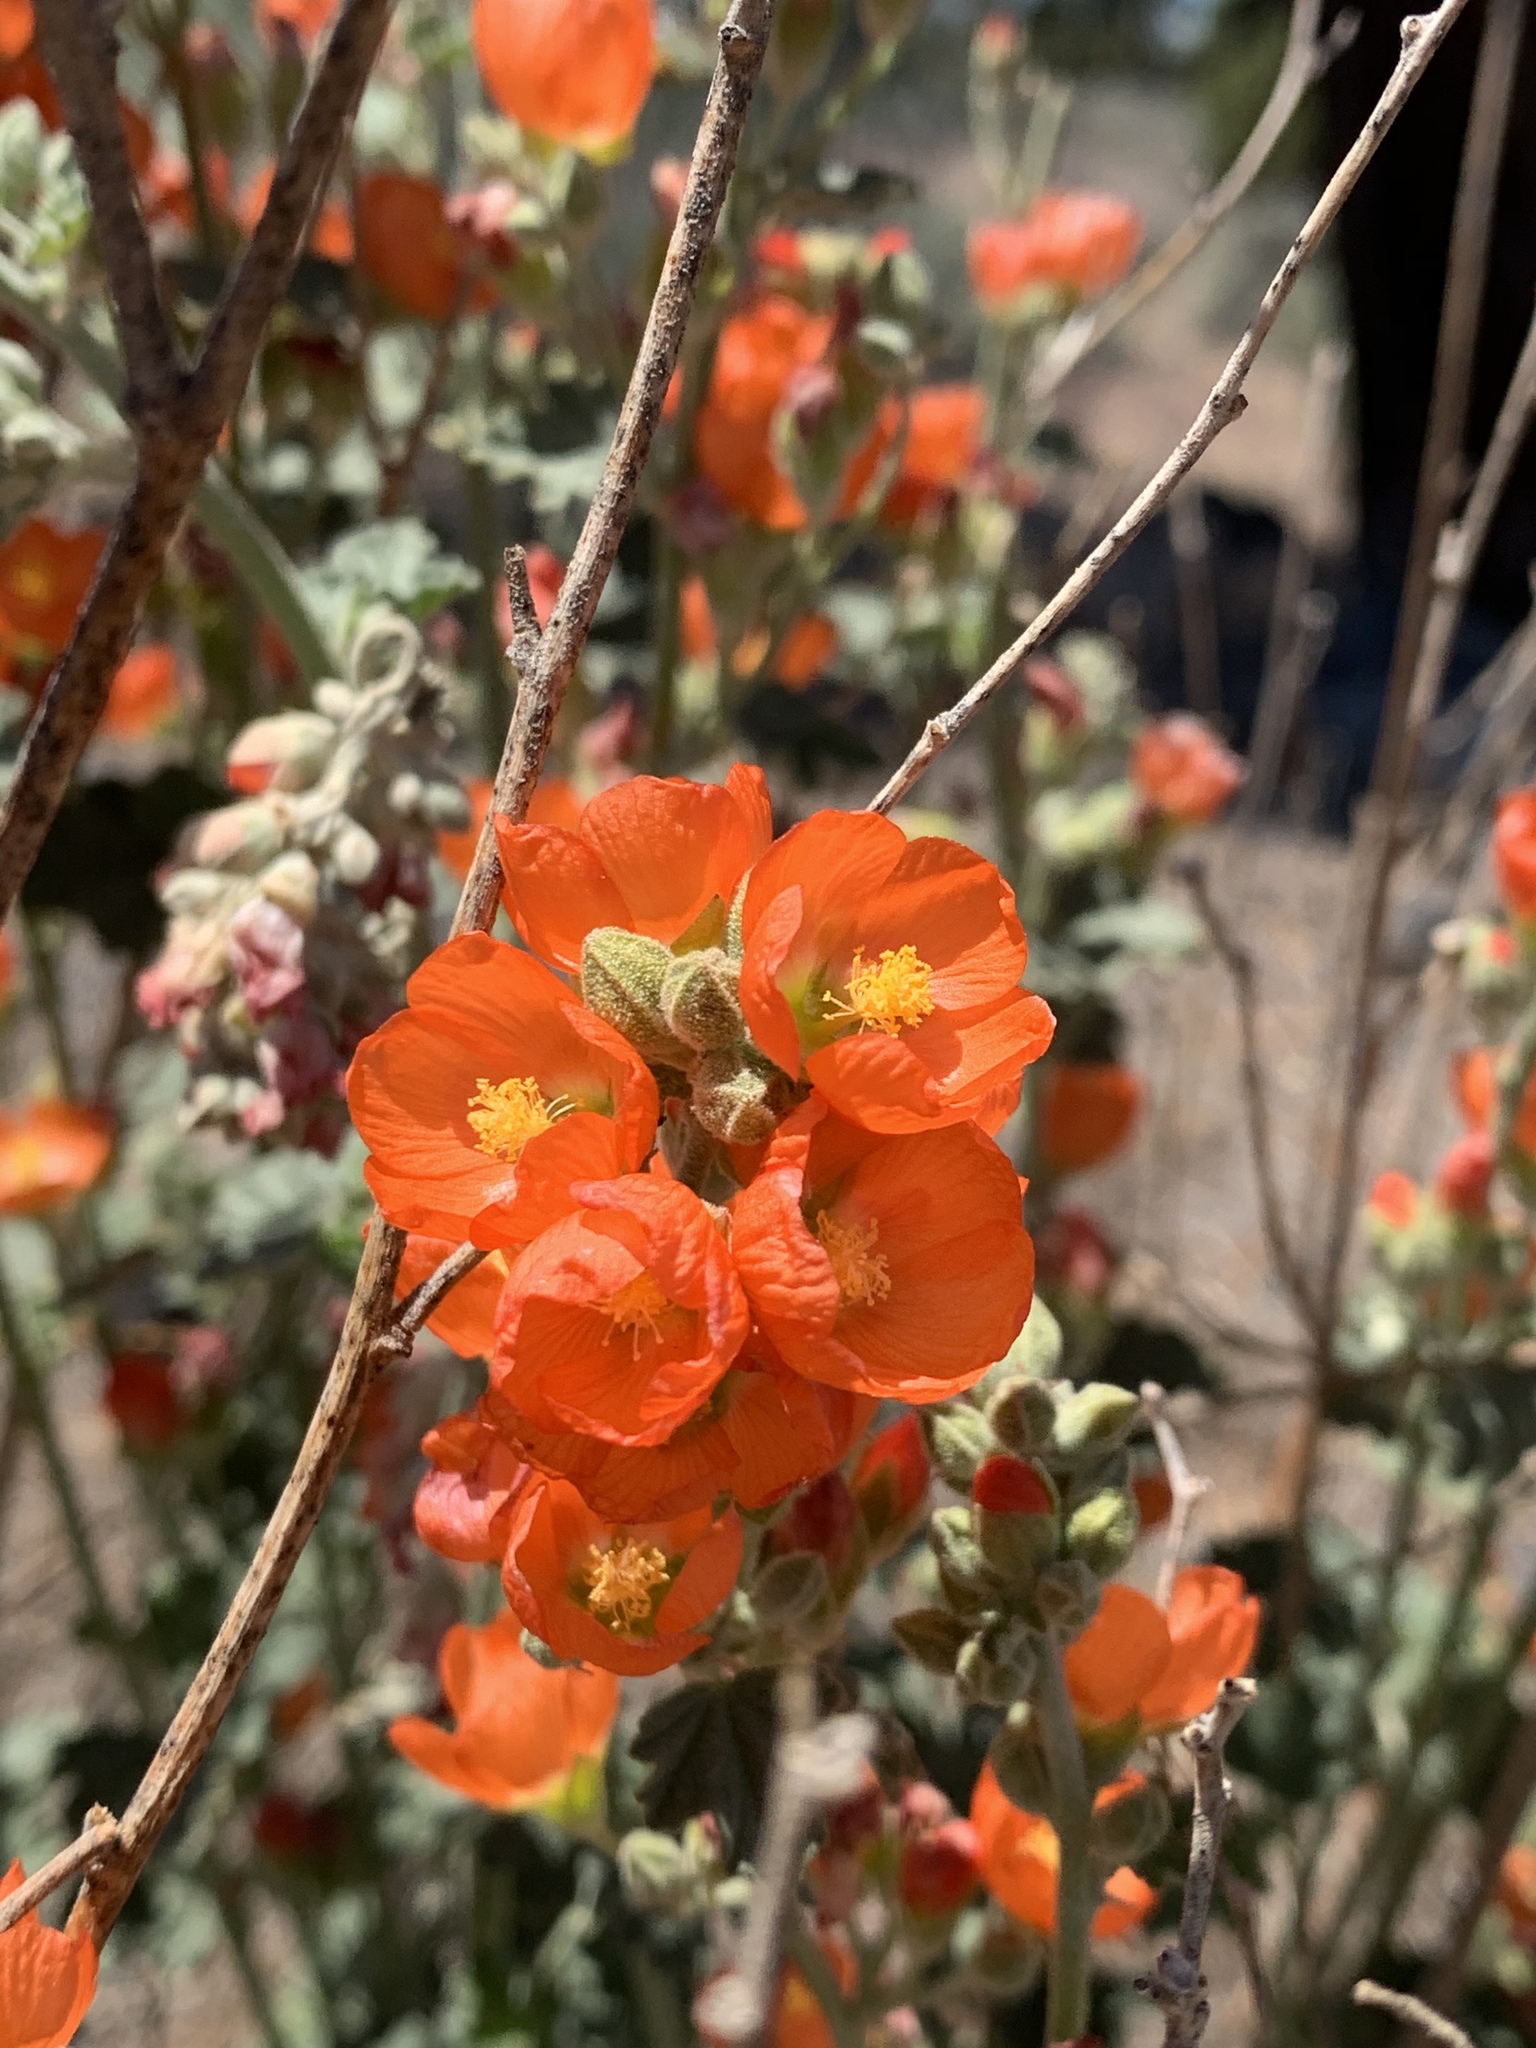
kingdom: Plantae
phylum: Tracheophyta
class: Magnoliopsida
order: Malvales
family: Malvaceae
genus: Sphaeralcea
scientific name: Sphaeralcea munroana
